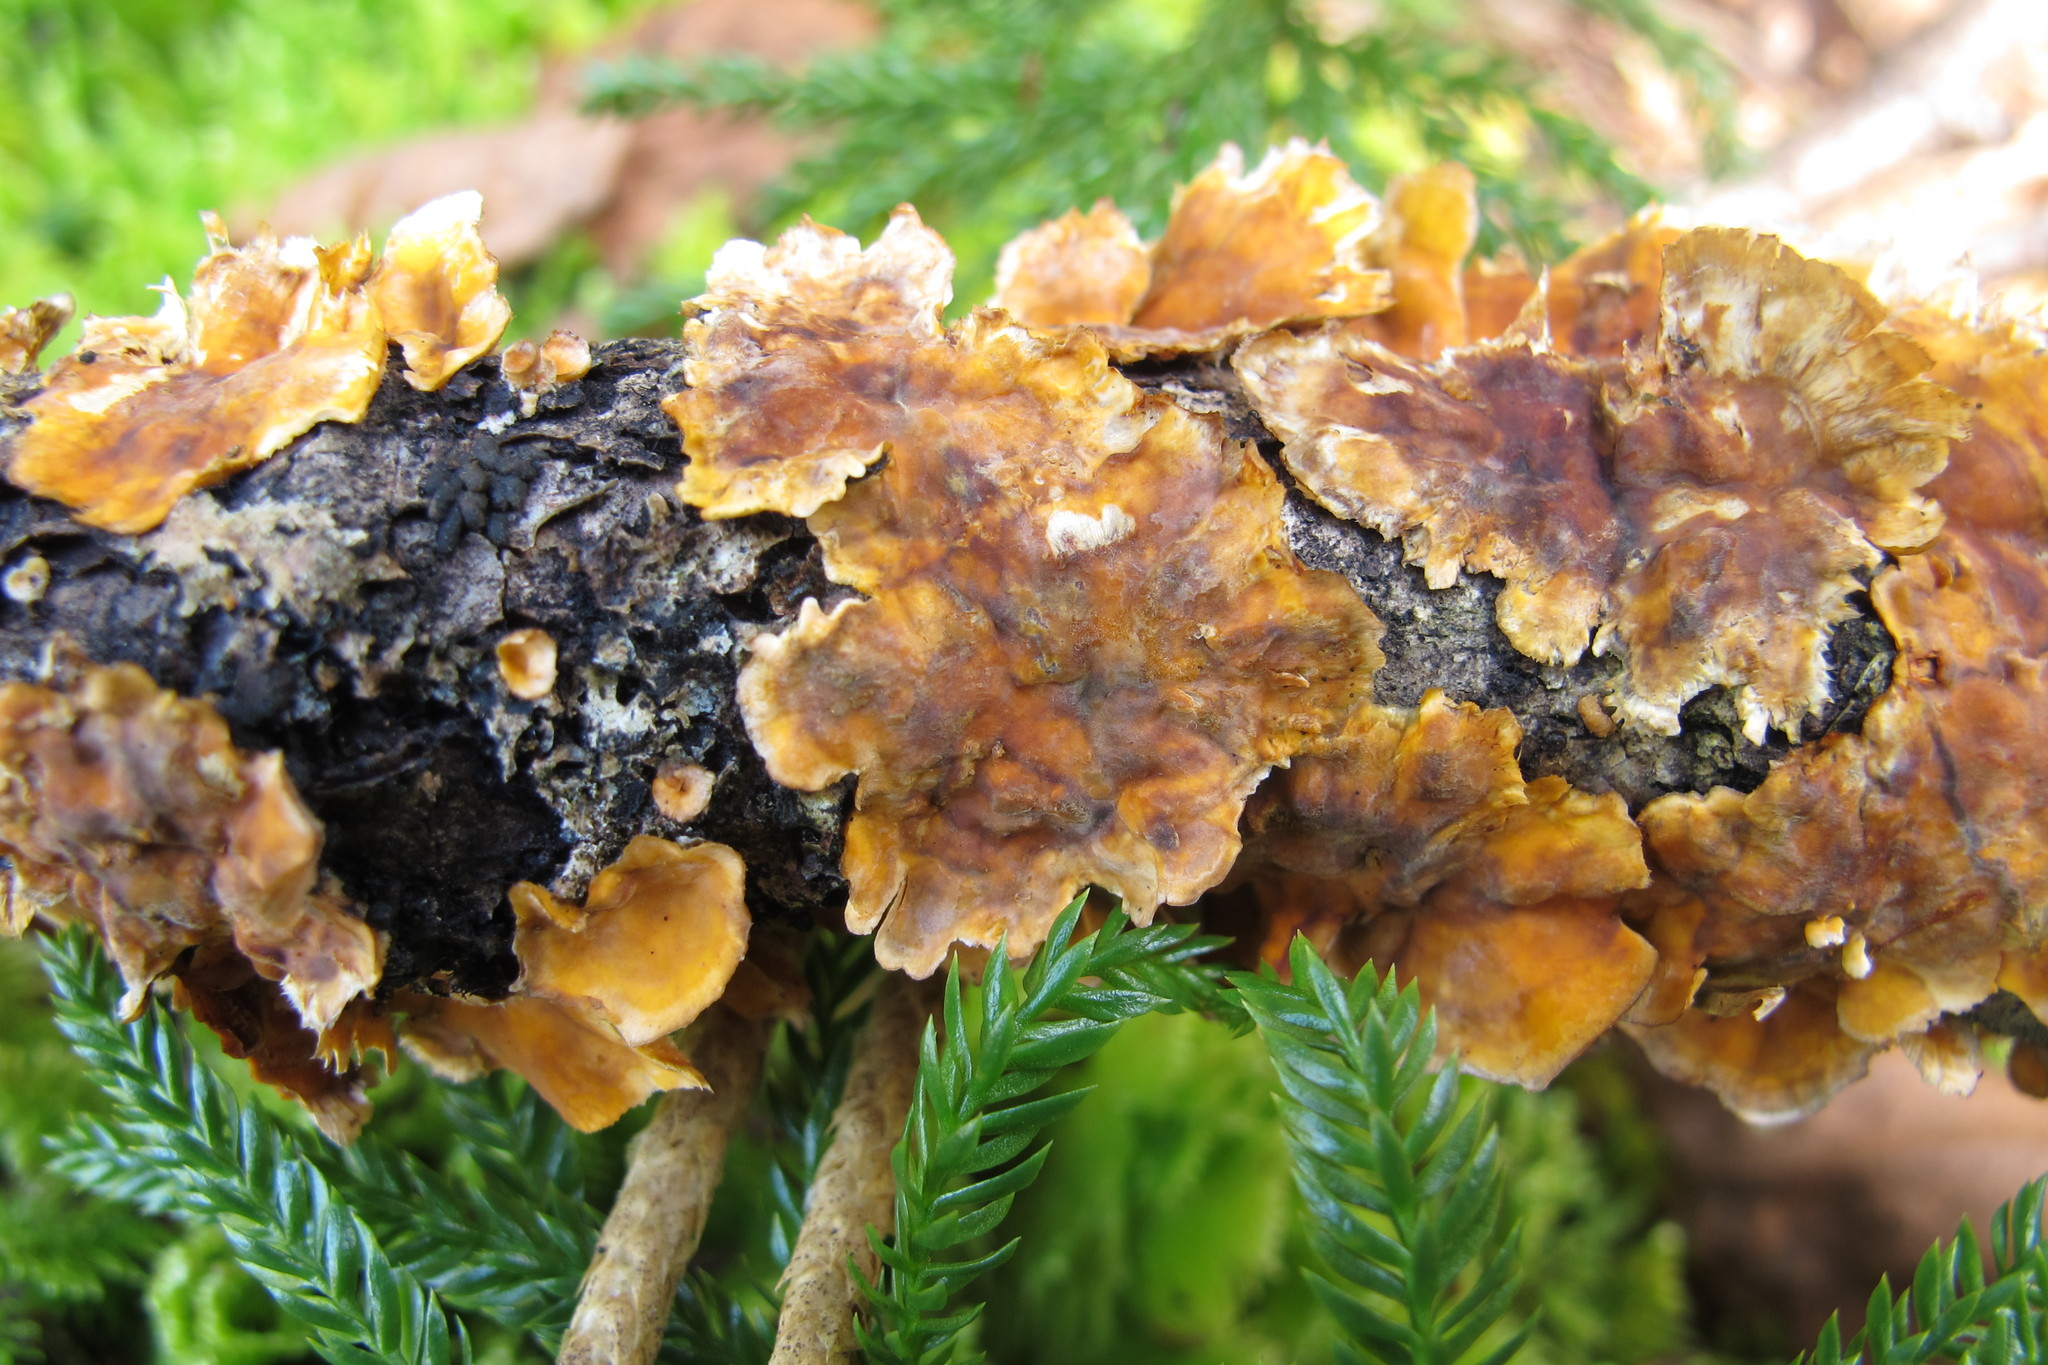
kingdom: Fungi
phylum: Basidiomycota
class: Agaricomycetes
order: Russulales
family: Stereaceae
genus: Stereum
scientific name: Stereum complicatum
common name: Crowded parchment
